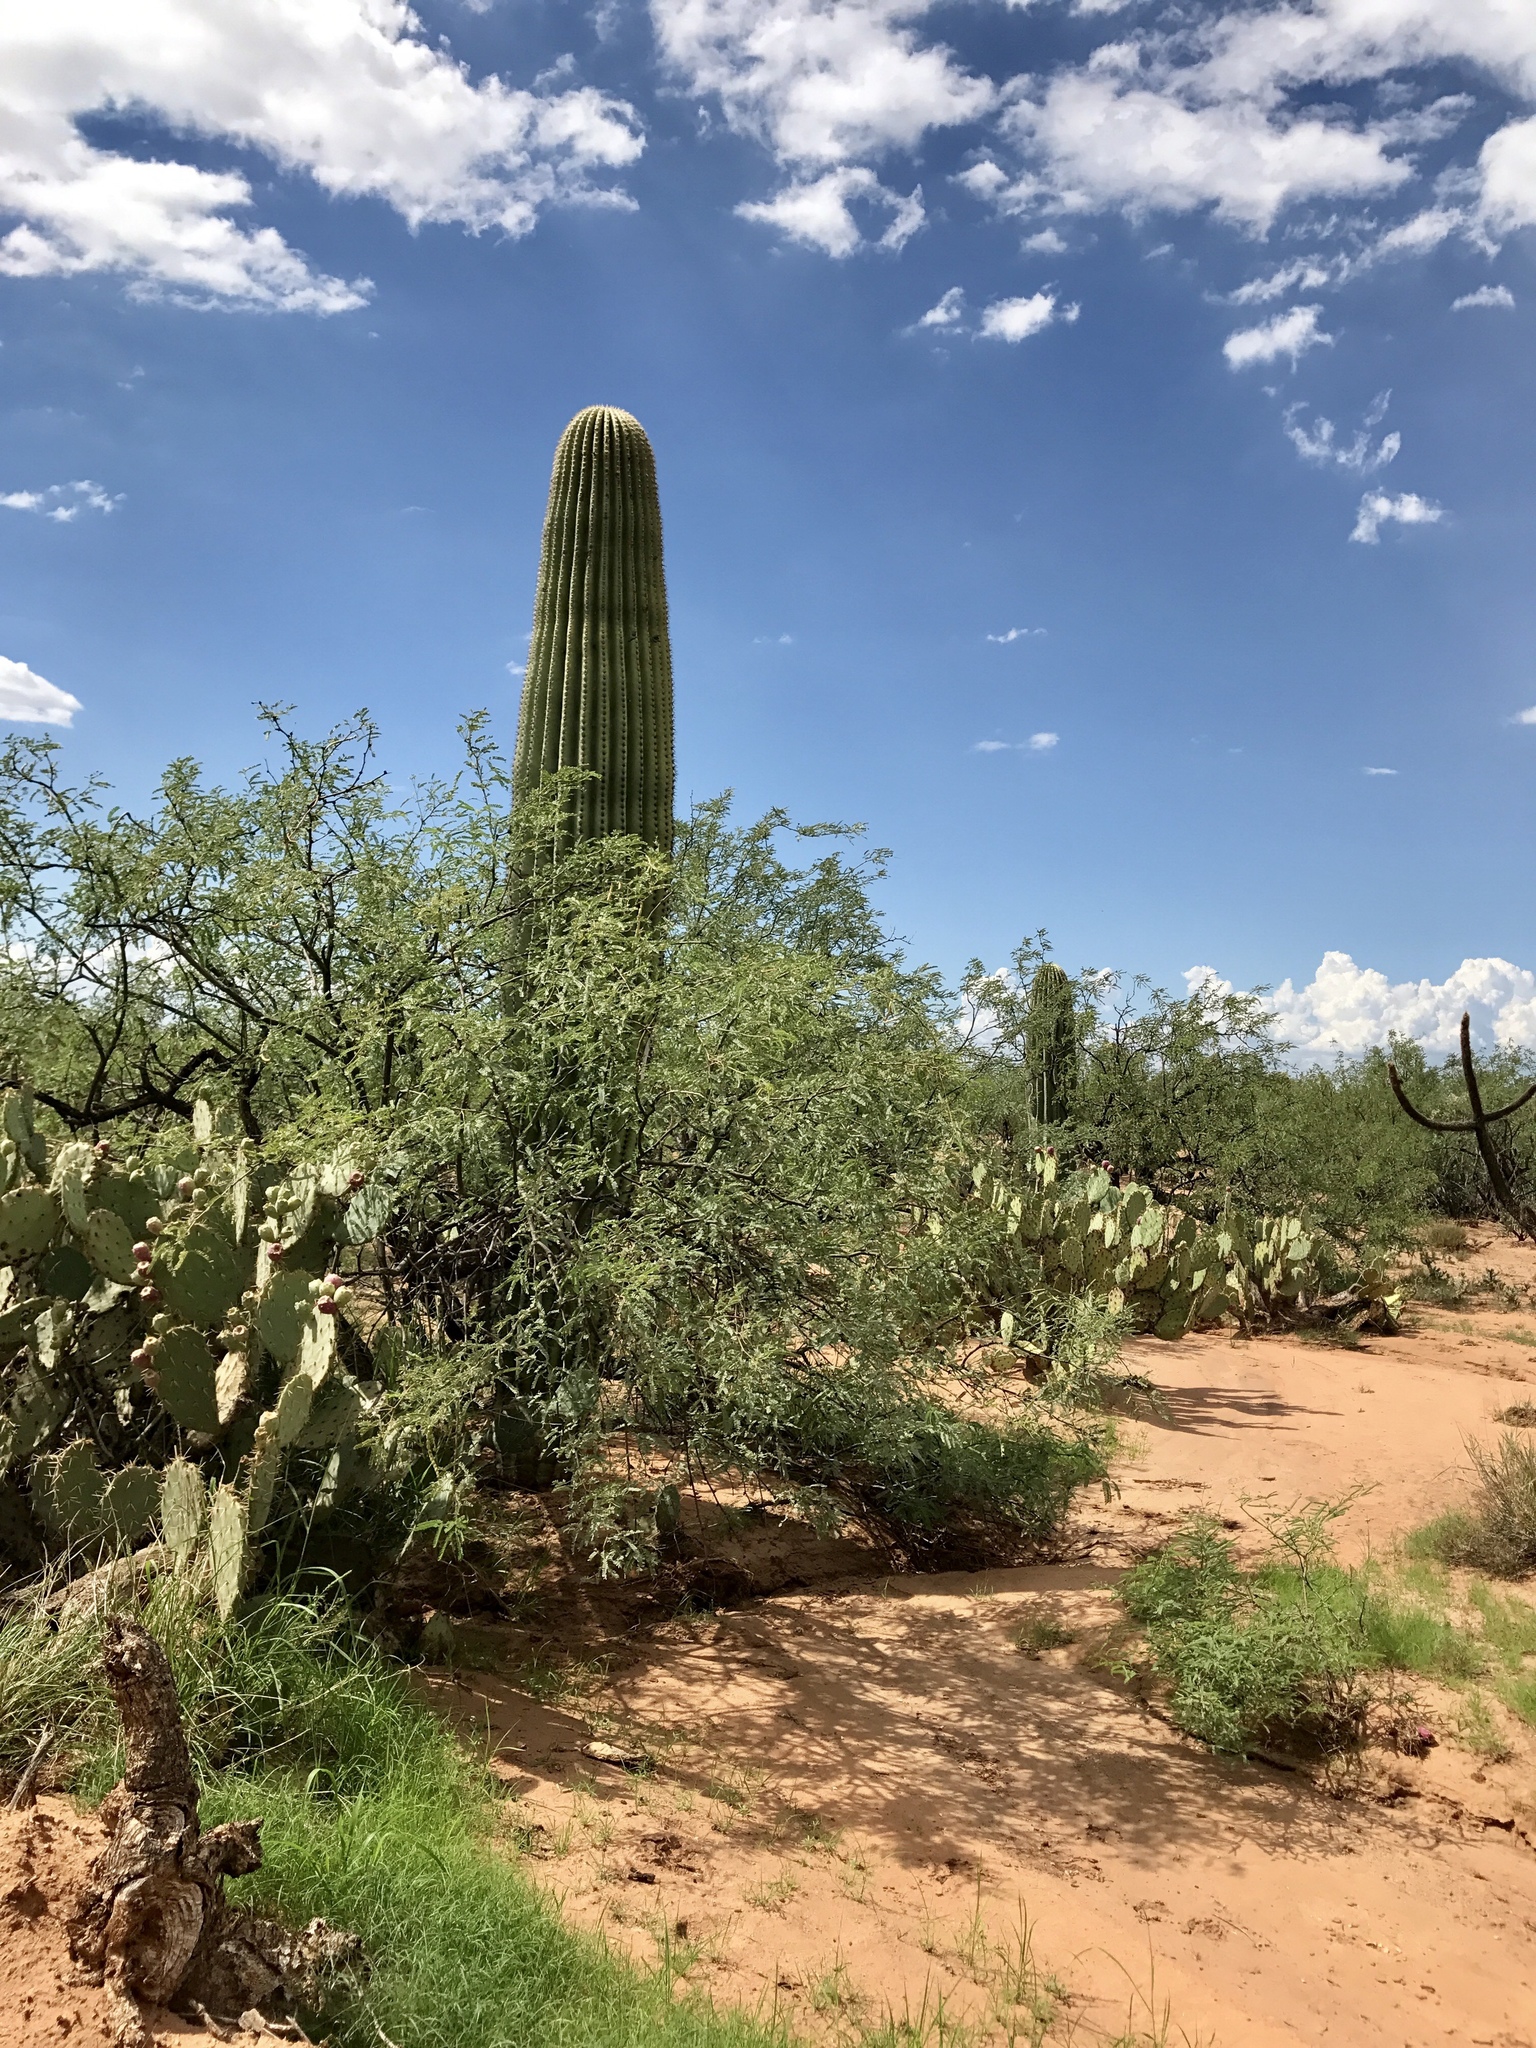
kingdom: Plantae
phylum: Tracheophyta
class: Magnoliopsida
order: Caryophyllales
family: Cactaceae
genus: Carnegiea
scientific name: Carnegiea gigantea
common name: Saguaro
